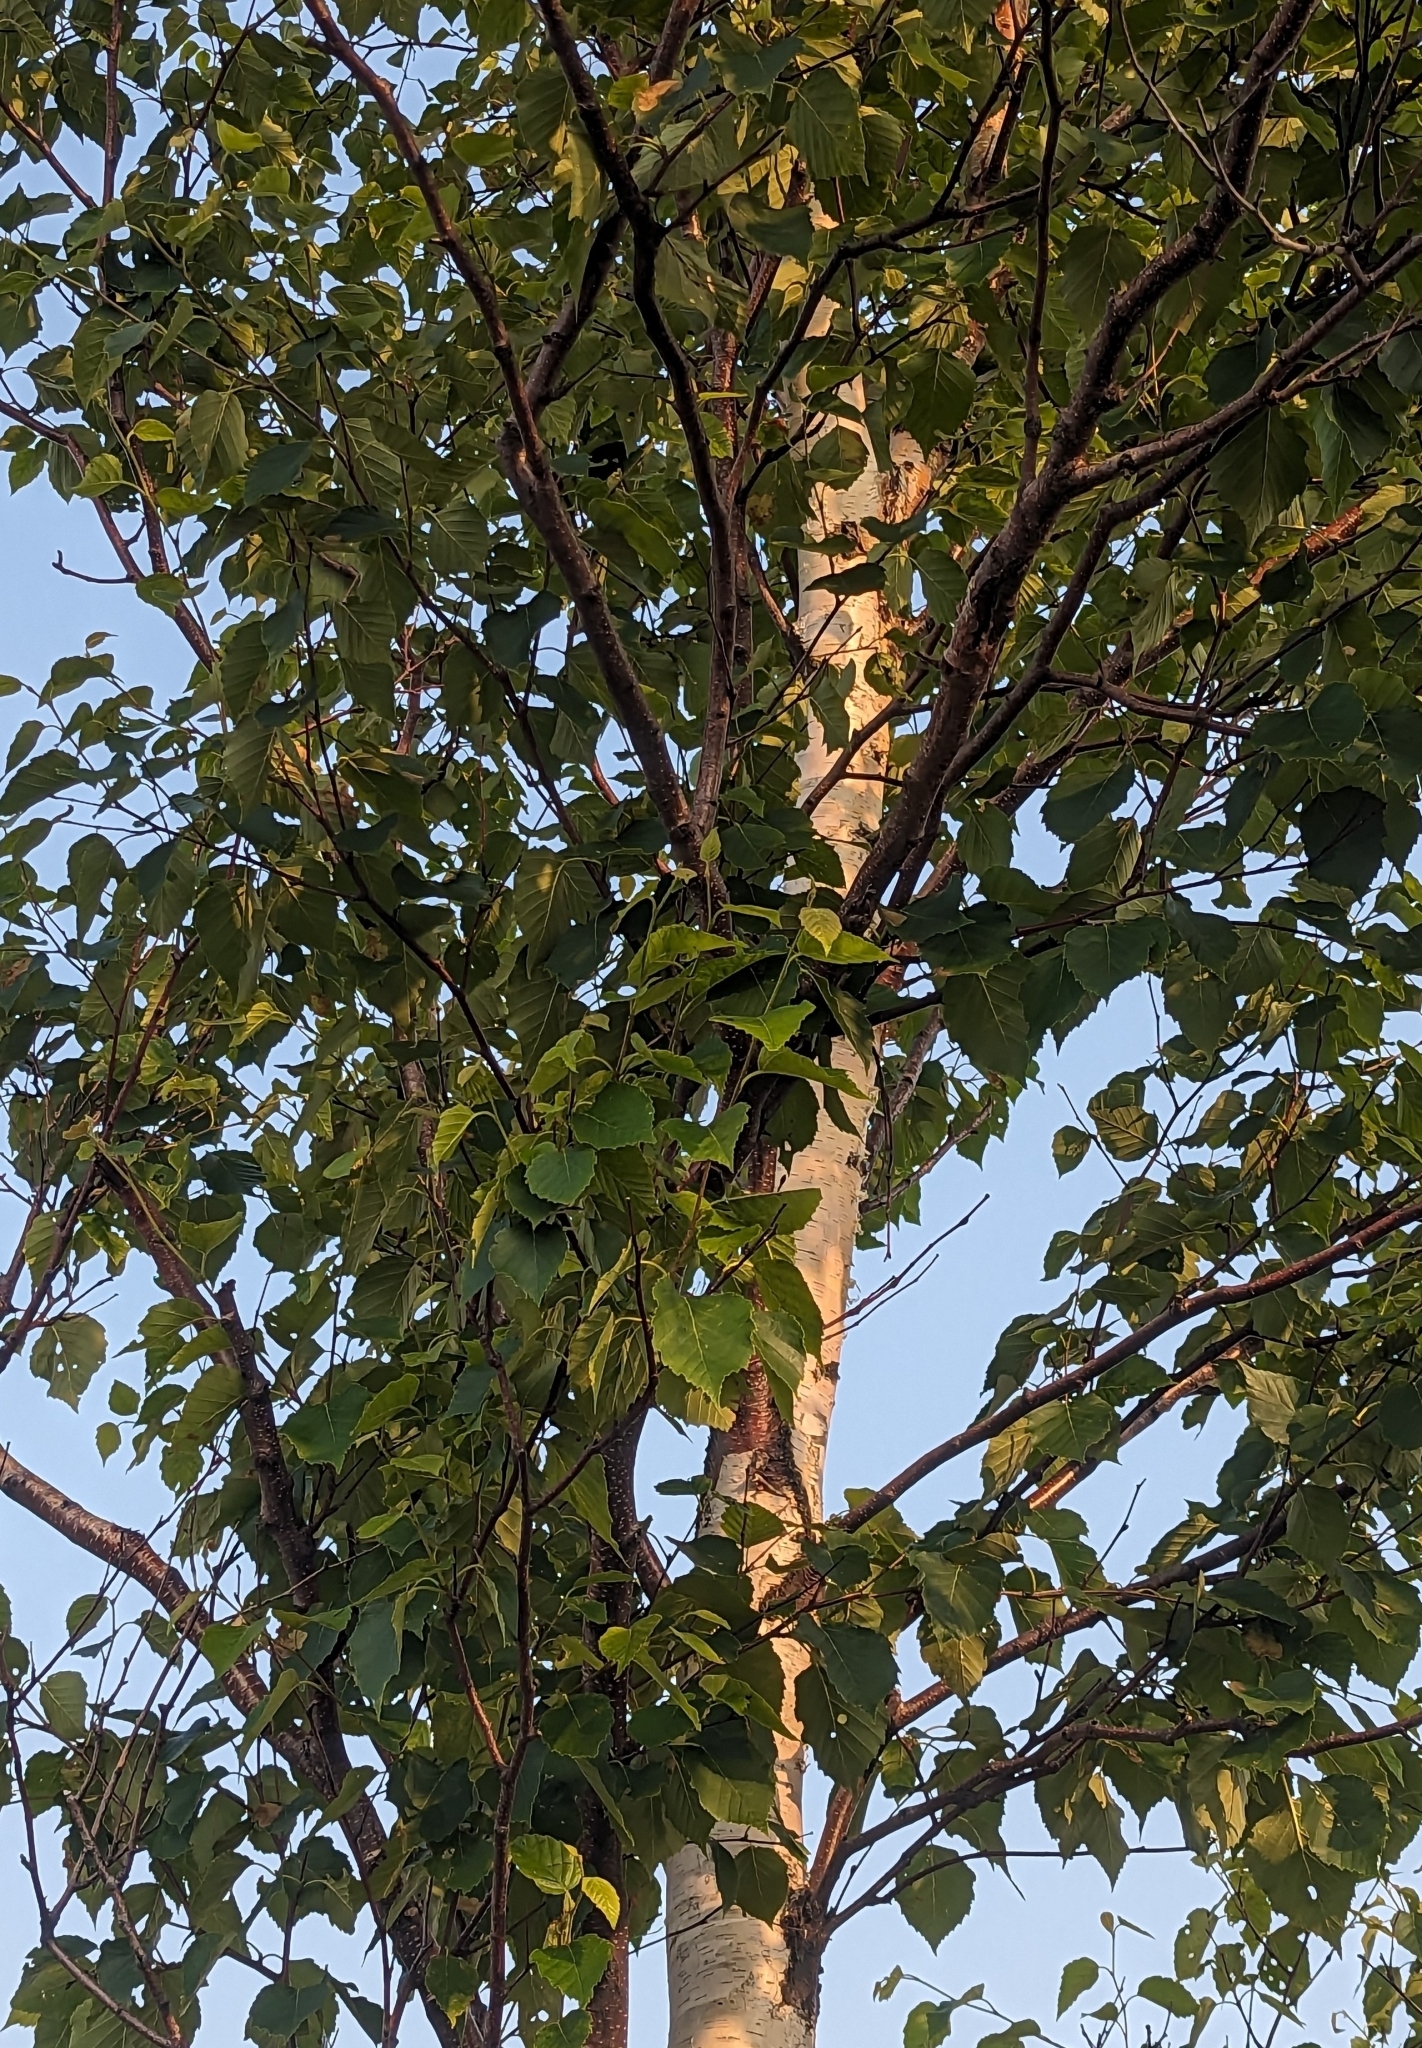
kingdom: Plantae
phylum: Tracheophyta
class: Magnoliopsida
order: Fagales
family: Betulaceae
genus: Betula
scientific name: Betula papyrifera
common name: Paper birch
